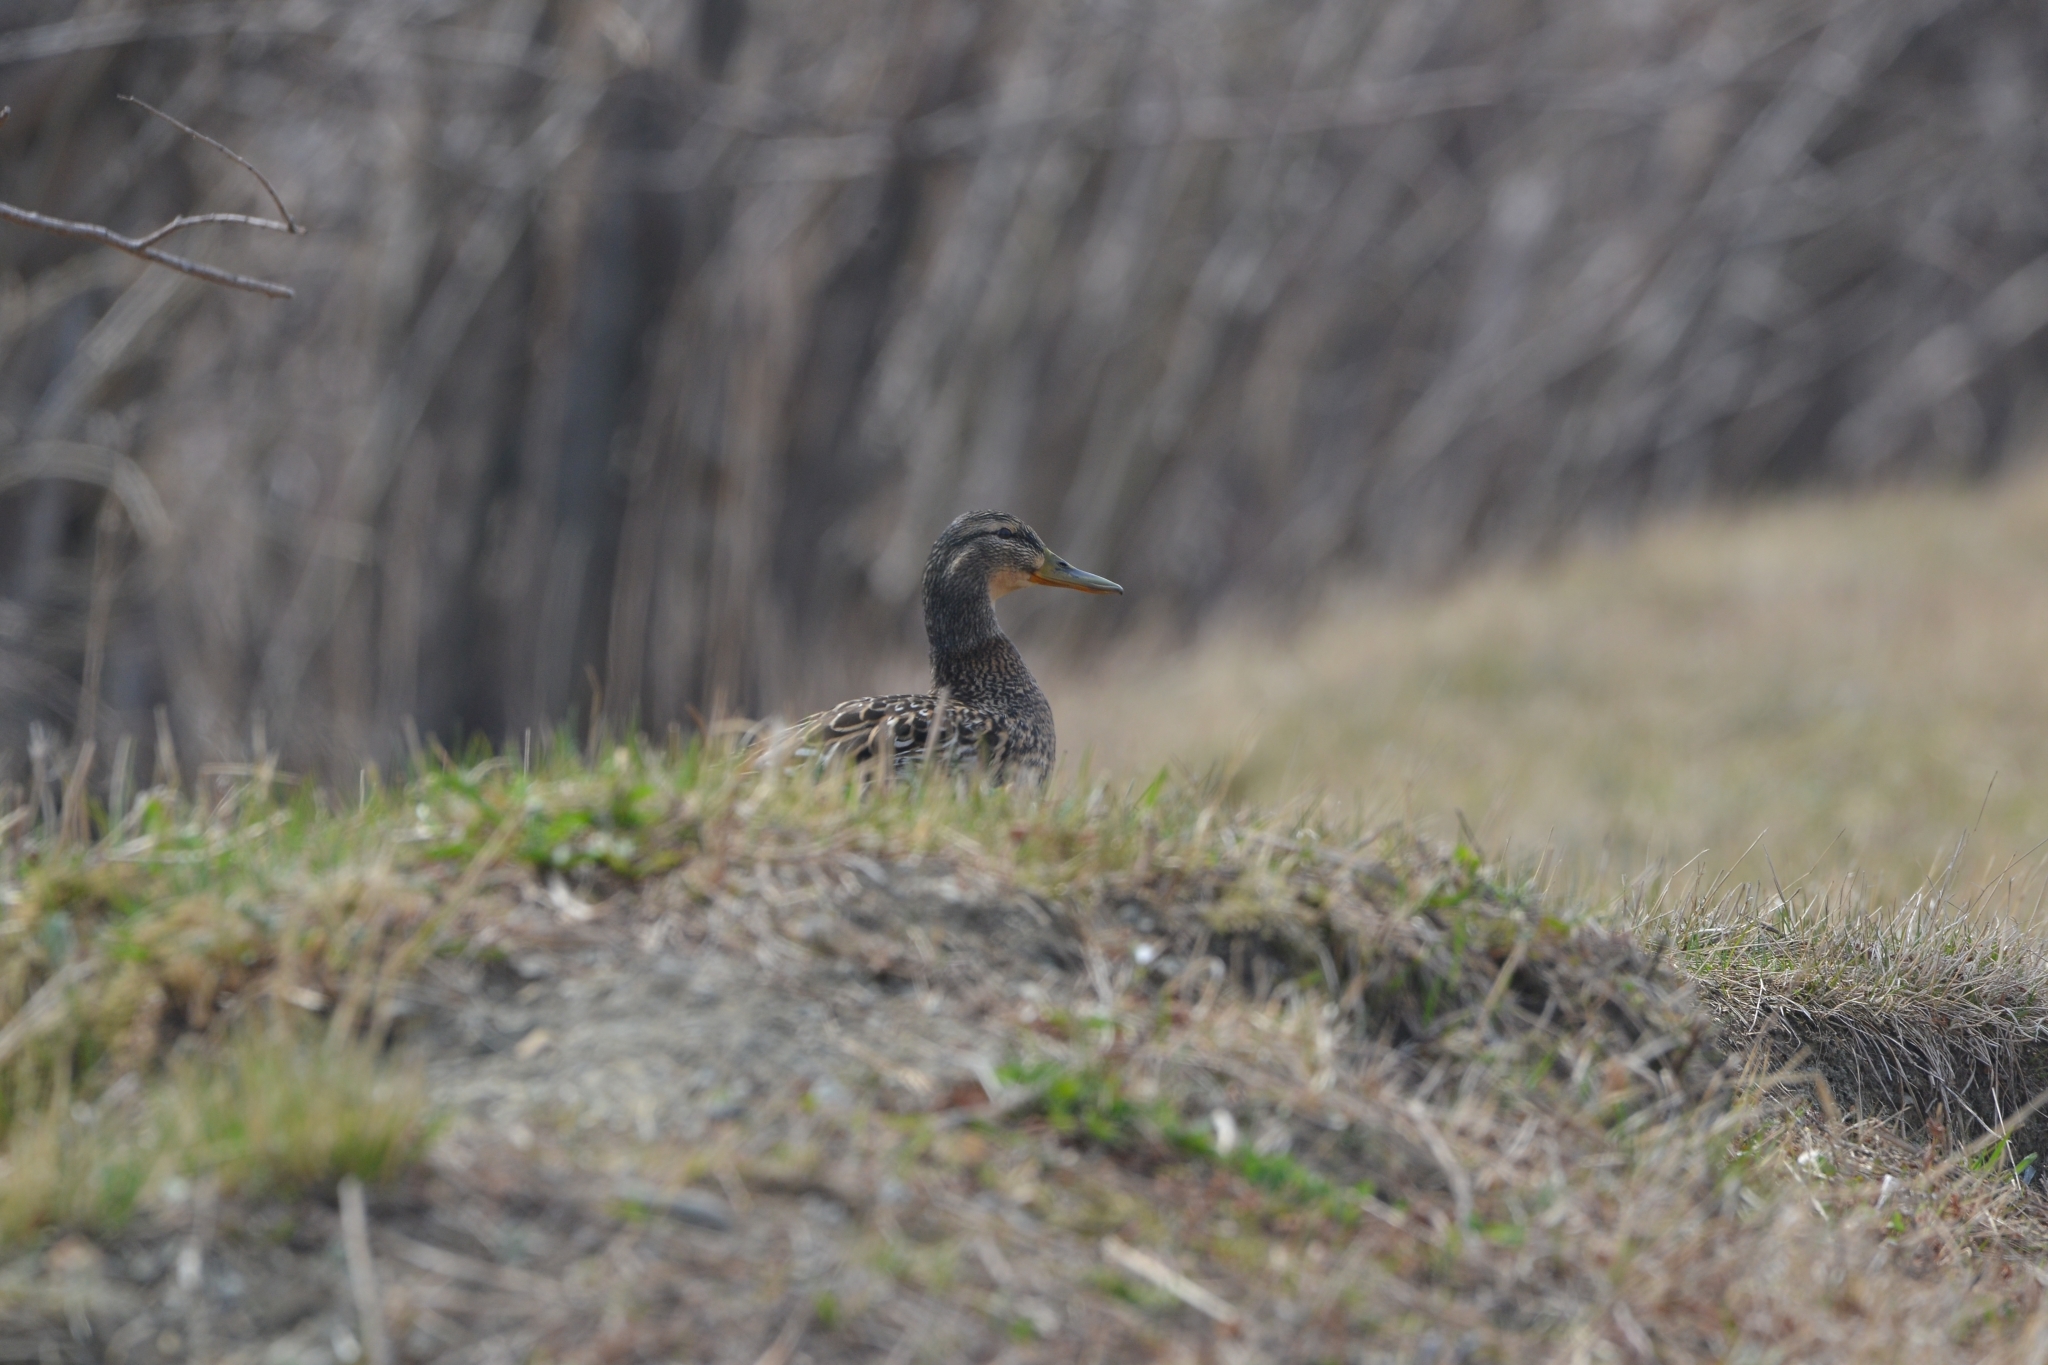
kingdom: Animalia
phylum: Chordata
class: Aves
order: Anseriformes
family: Anatidae
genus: Anas
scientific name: Anas platyrhynchos
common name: Mallard
